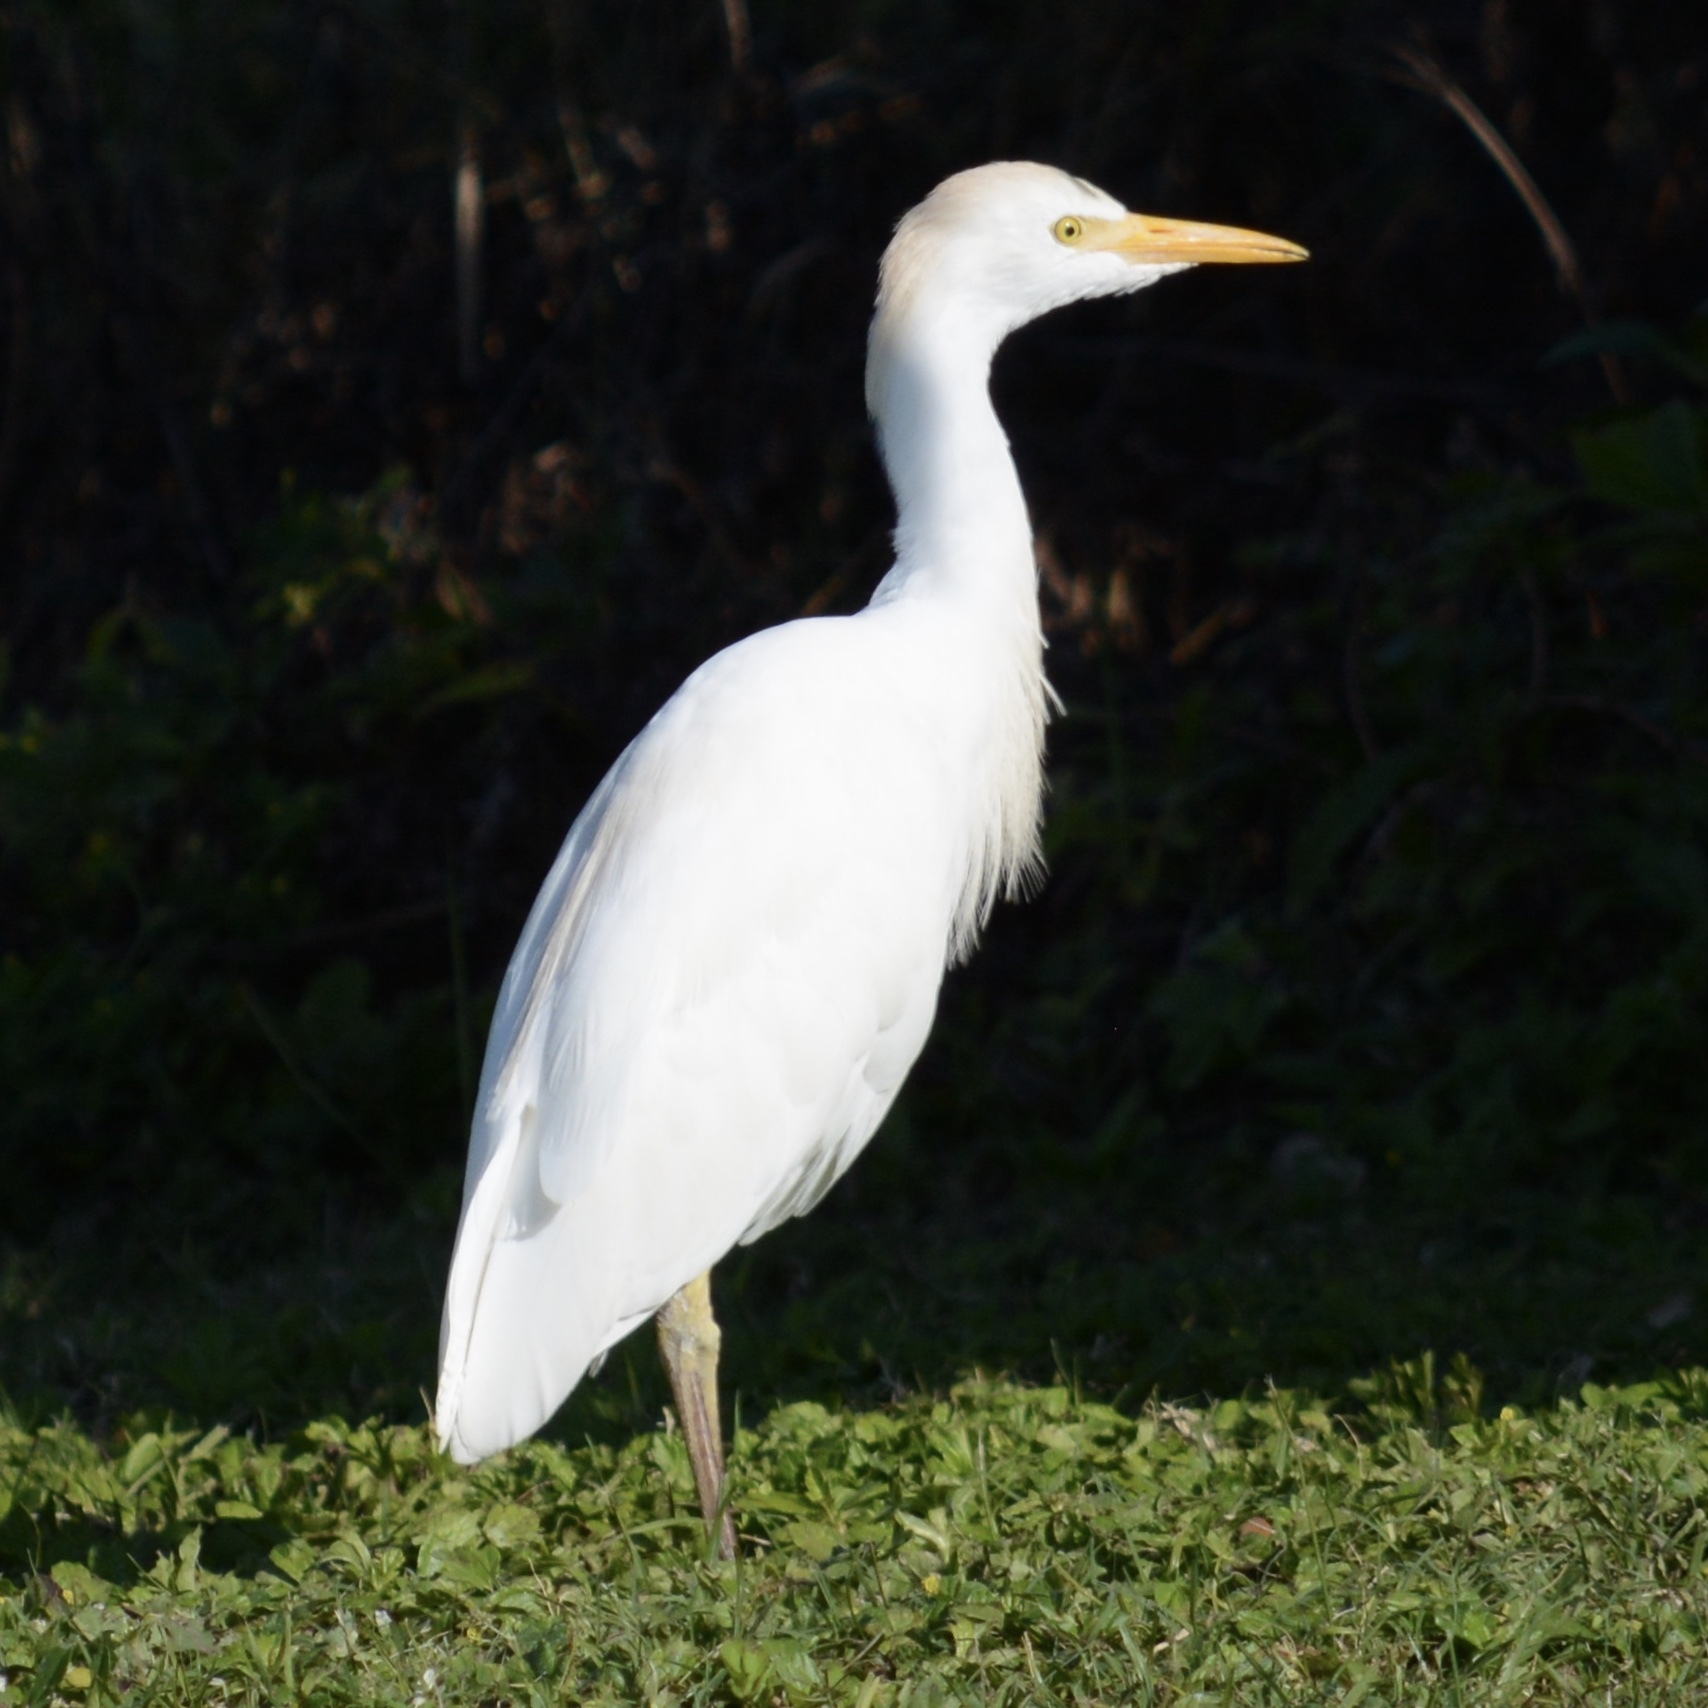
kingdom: Animalia
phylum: Chordata
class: Aves
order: Pelecaniformes
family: Ardeidae
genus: Bubulcus
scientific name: Bubulcus ibis
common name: Cattle egret
